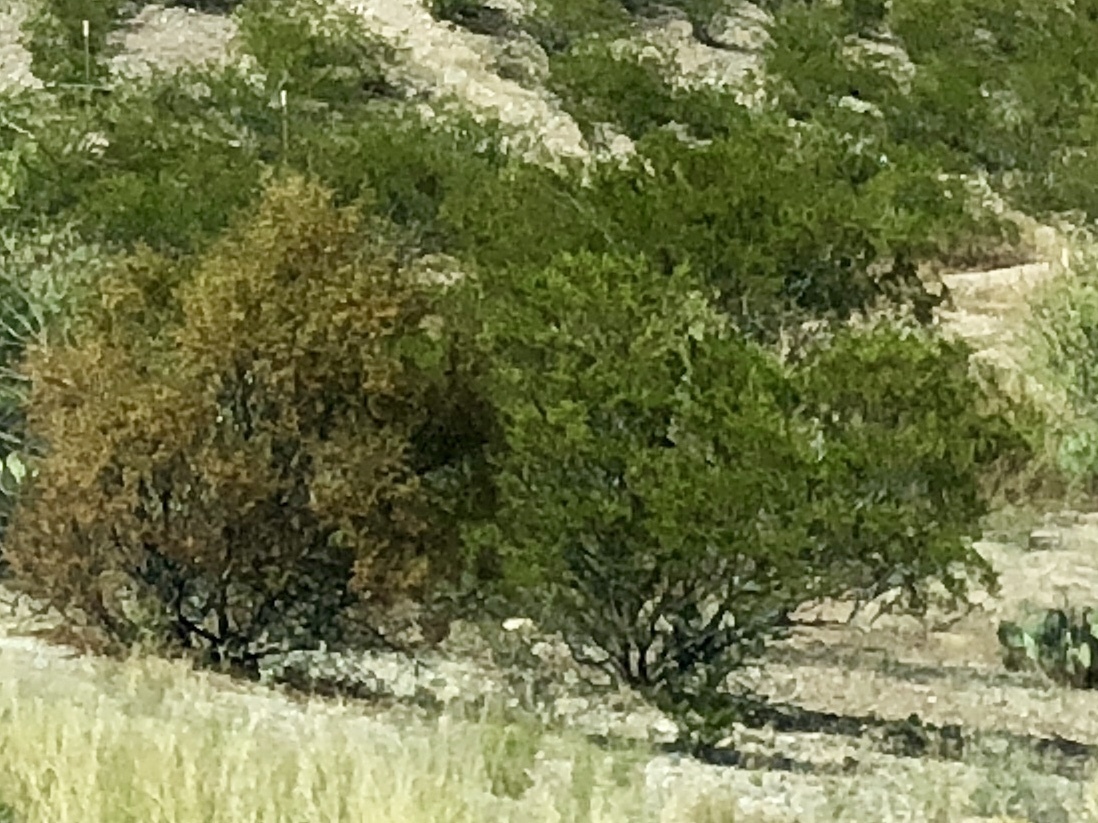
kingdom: Plantae
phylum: Tracheophyta
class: Magnoliopsida
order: Zygophyllales
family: Zygophyllaceae
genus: Larrea
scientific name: Larrea tridentata
